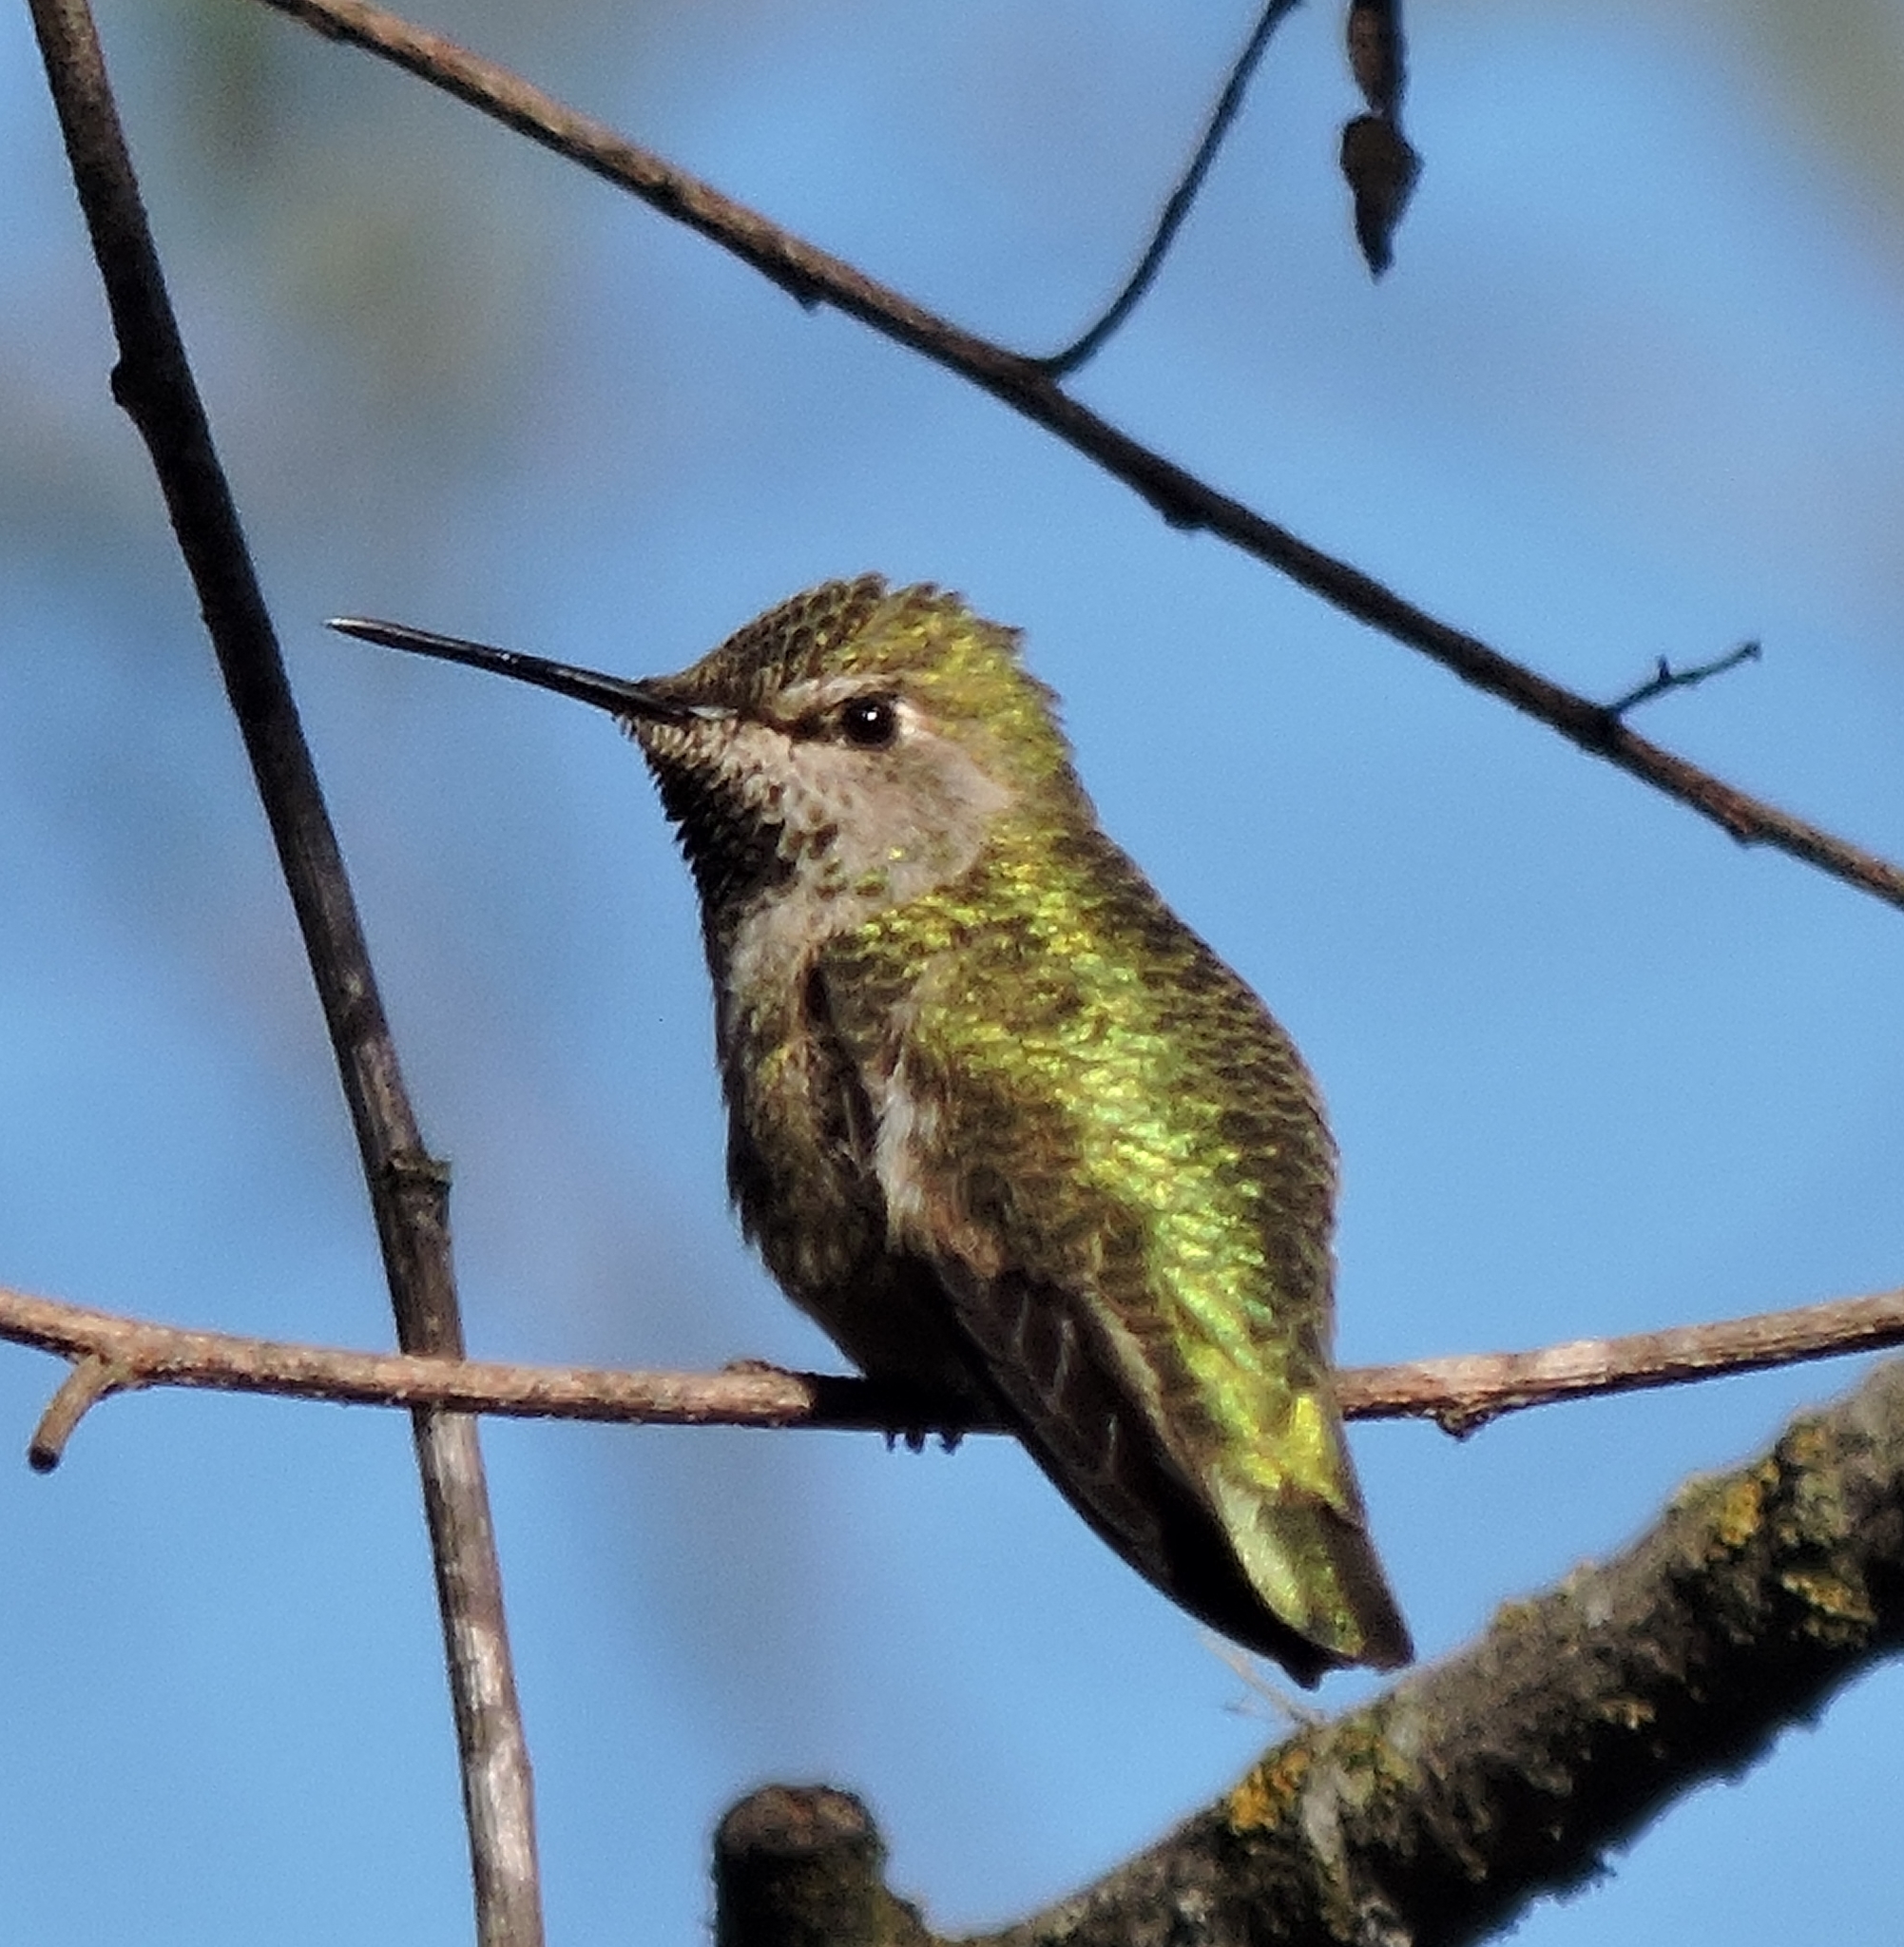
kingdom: Animalia
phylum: Chordata
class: Aves
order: Apodiformes
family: Trochilidae
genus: Calypte
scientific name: Calypte anna
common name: Anna's hummingbird
